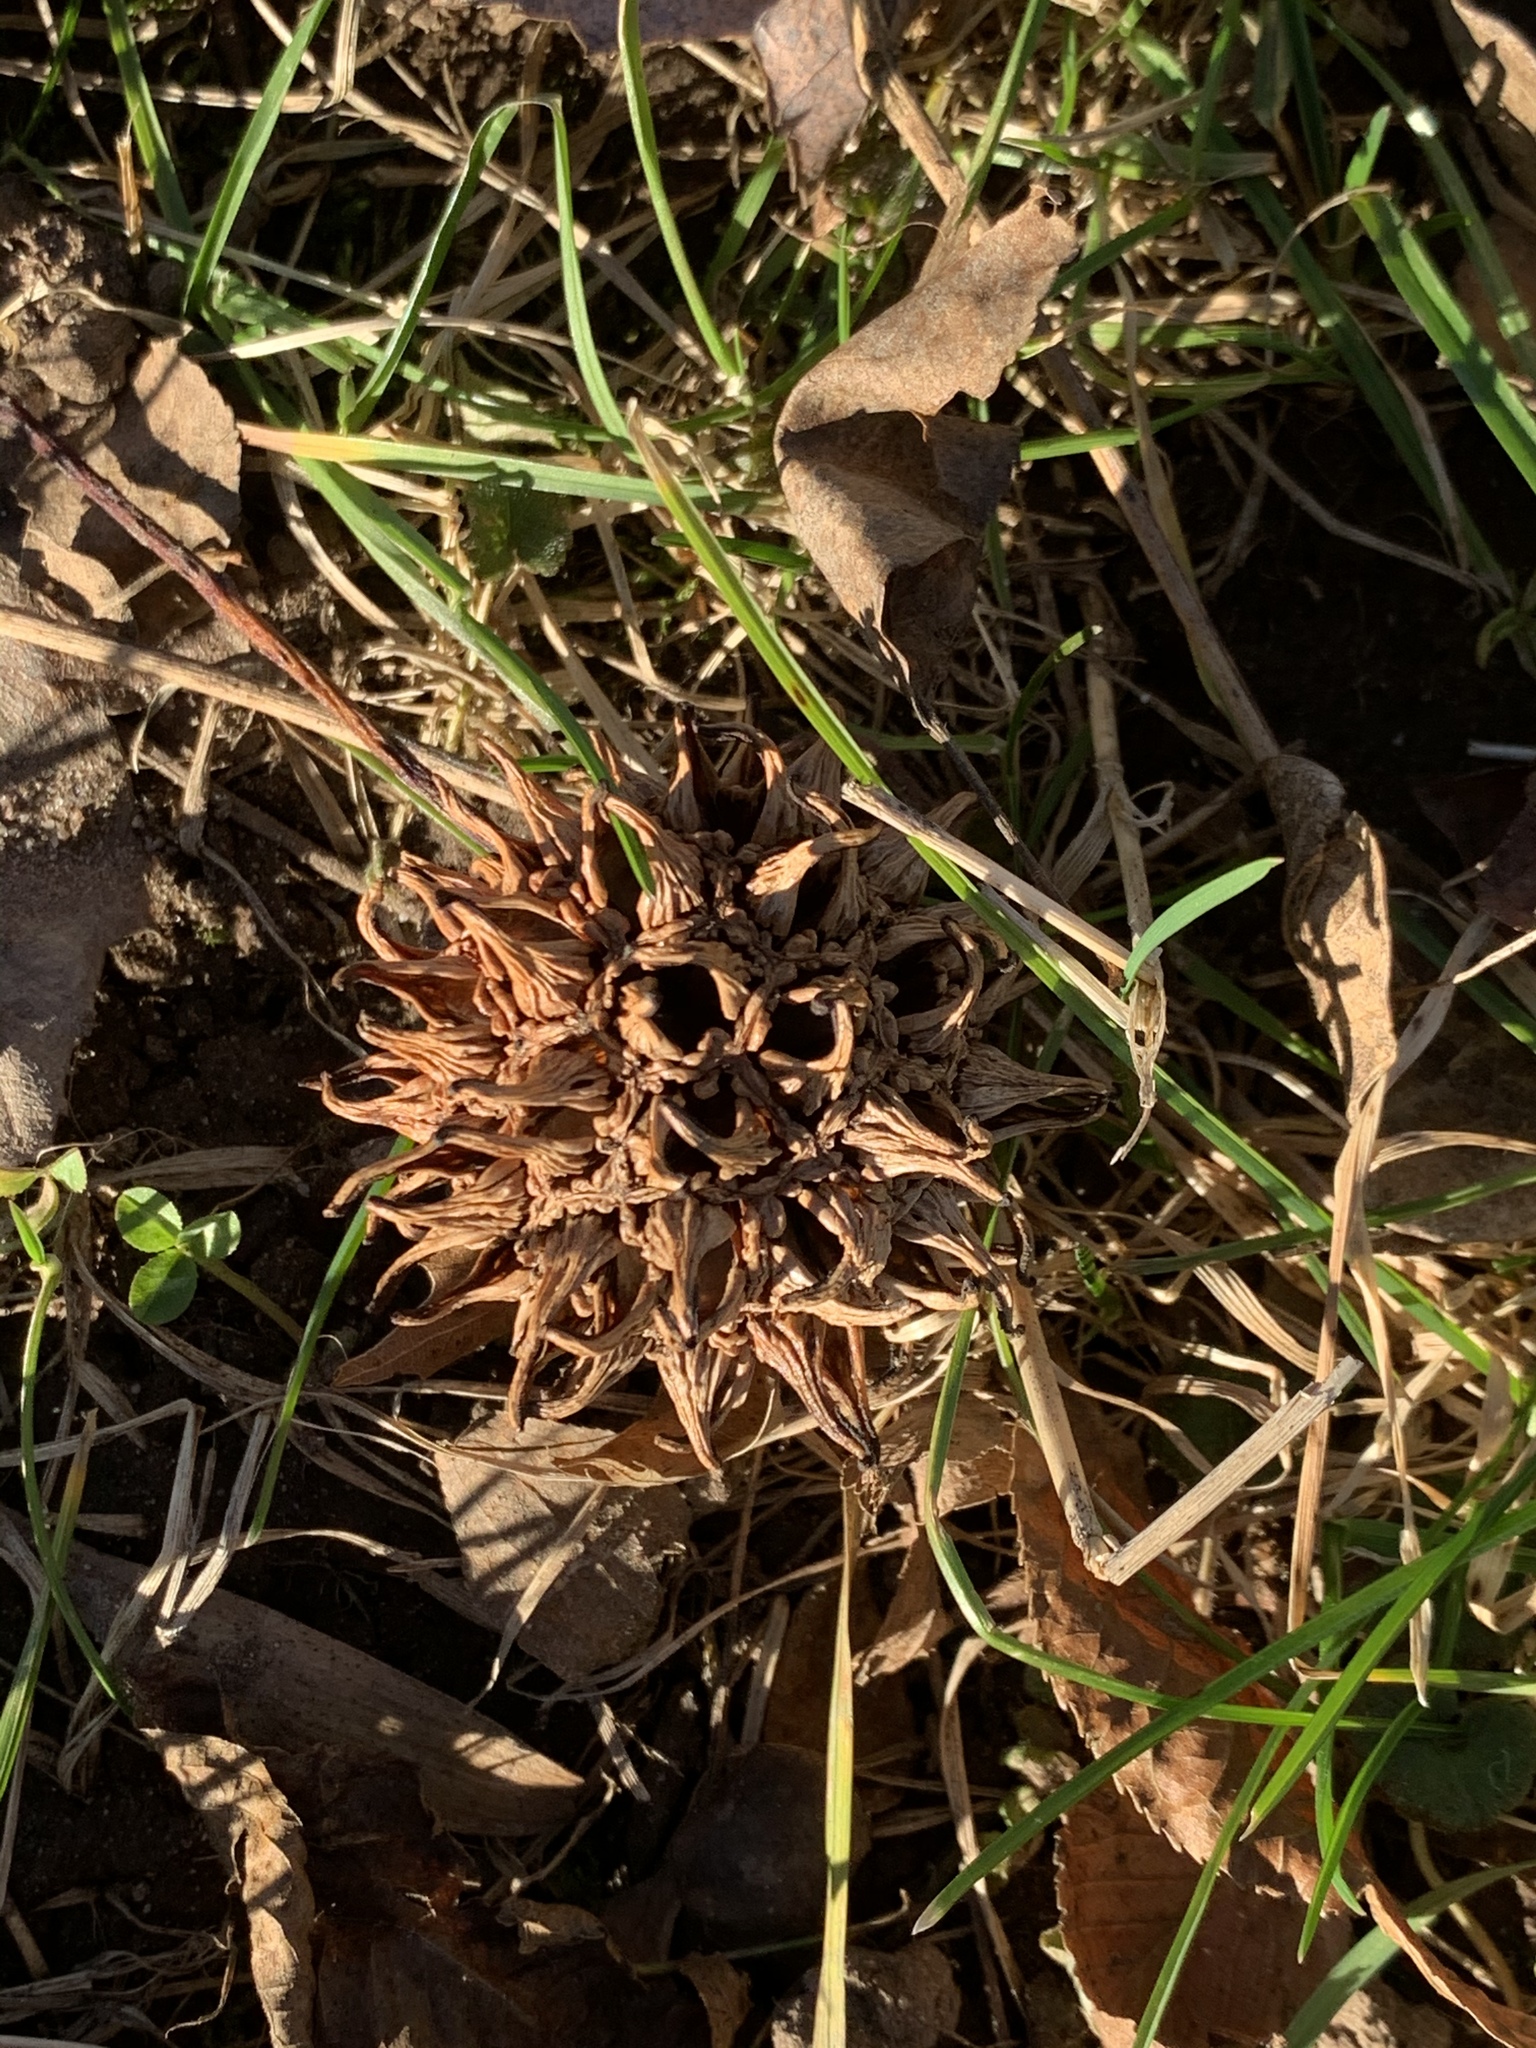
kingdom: Plantae
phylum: Tracheophyta
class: Magnoliopsida
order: Saxifragales
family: Altingiaceae
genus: Liquidambar
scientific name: Liquidambar styraciflua
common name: Sweet gum
